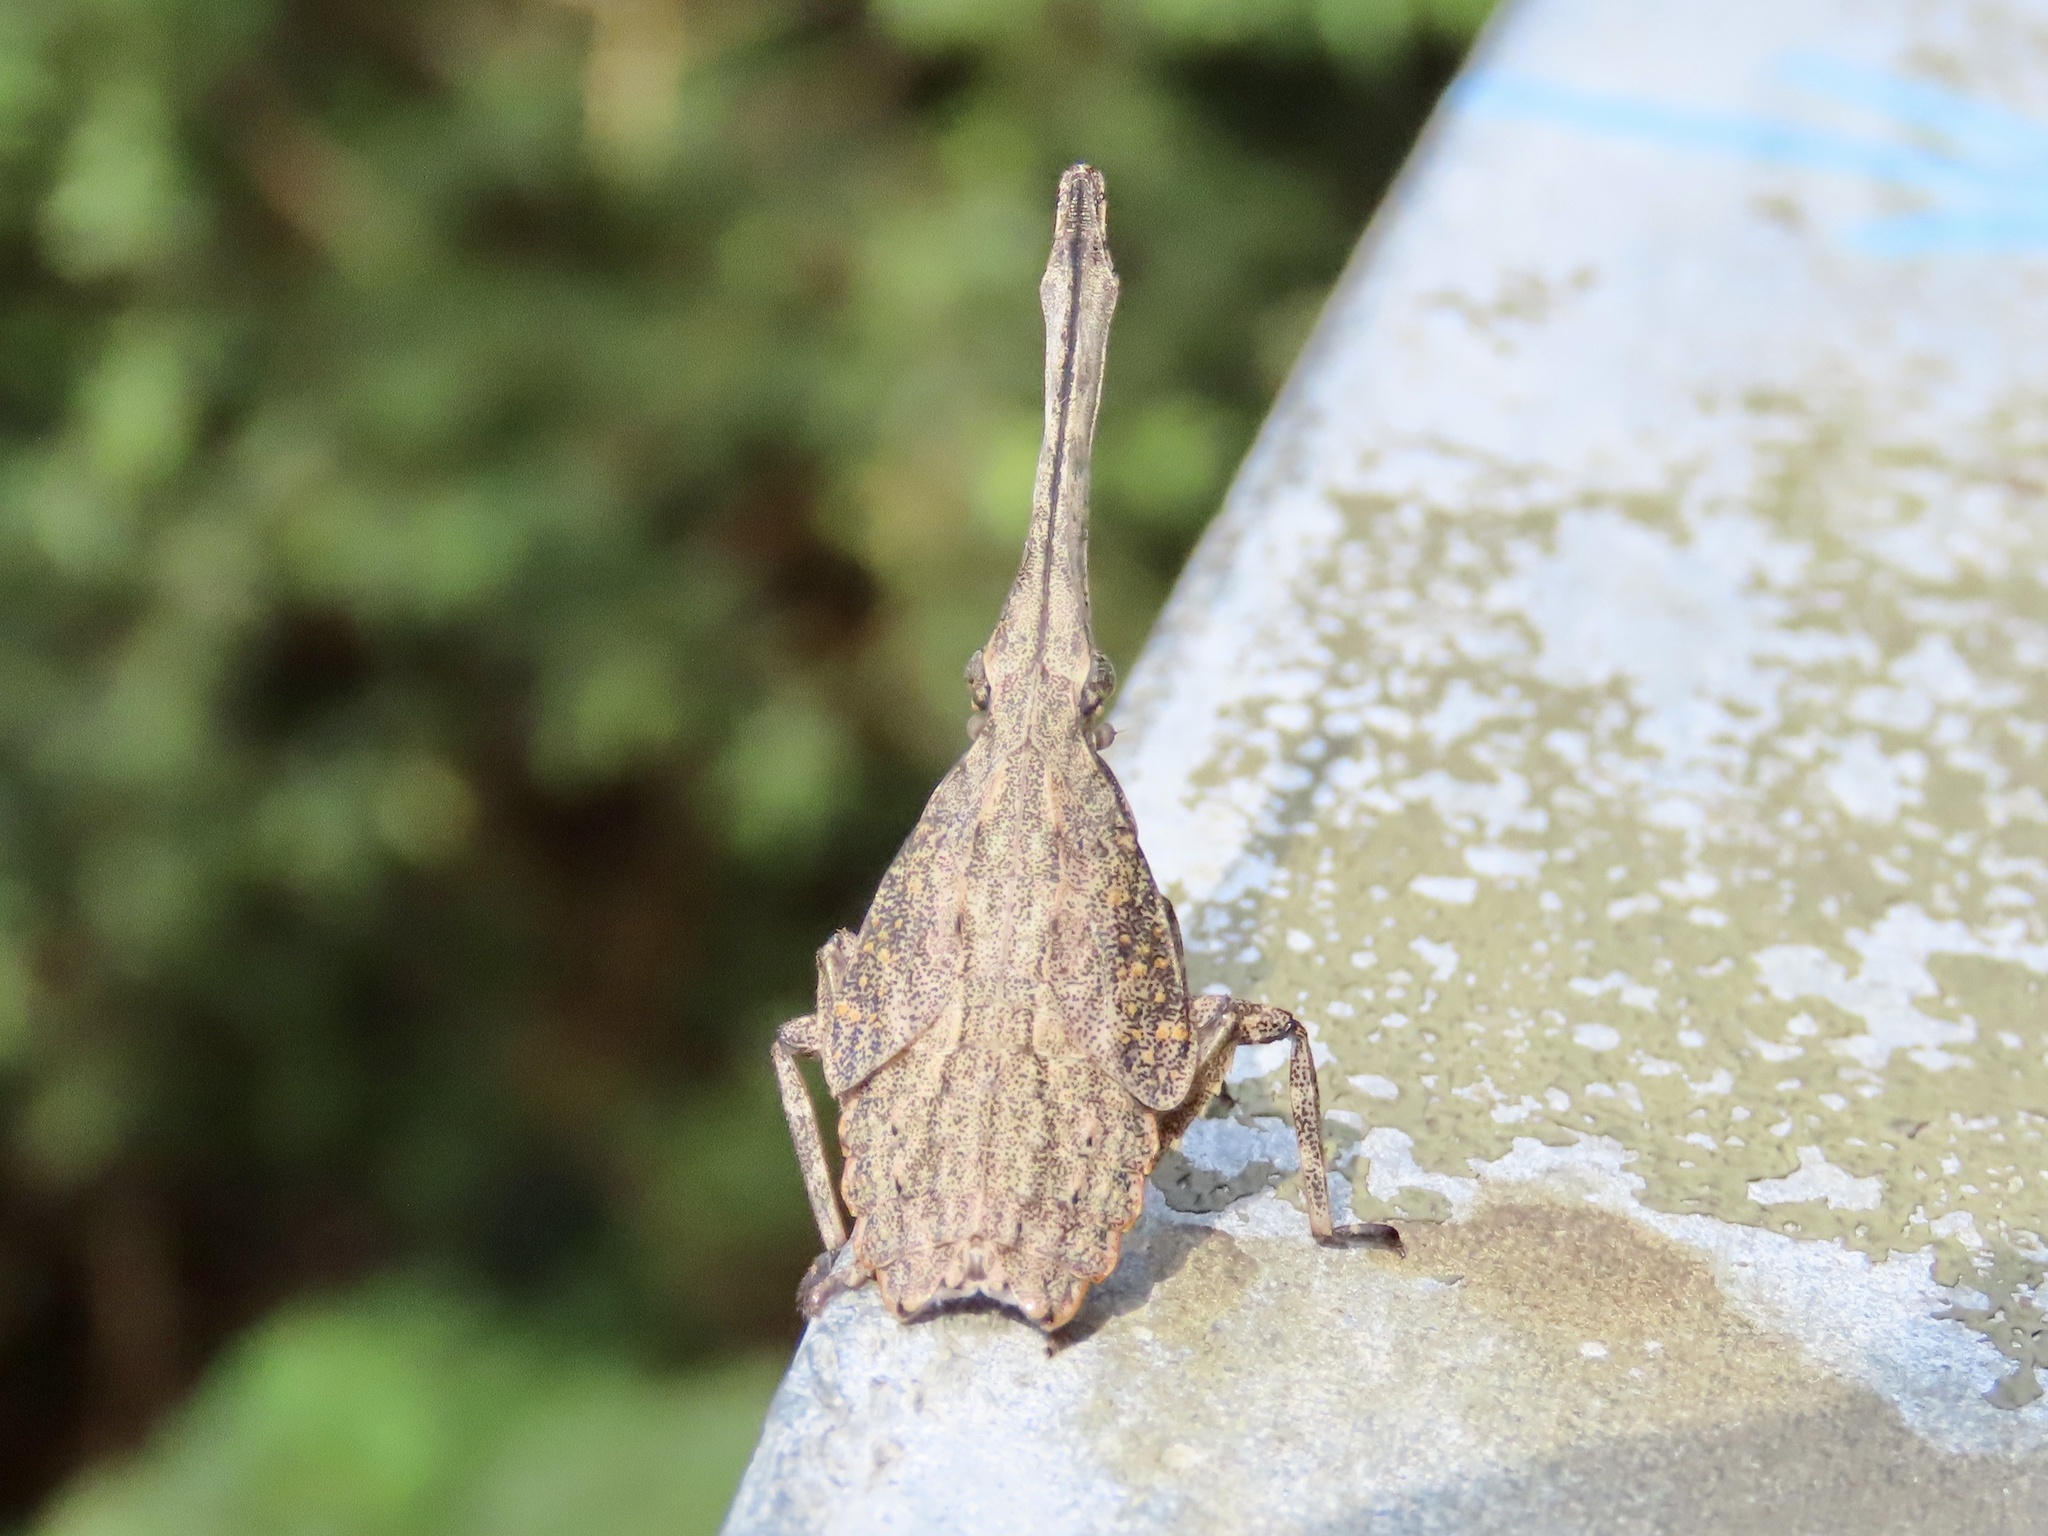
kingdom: Animalia
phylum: Arthropoda
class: Insecta
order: Hemiptera
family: Fulgoridae
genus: Pyrops
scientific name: Pyrops candelaria
